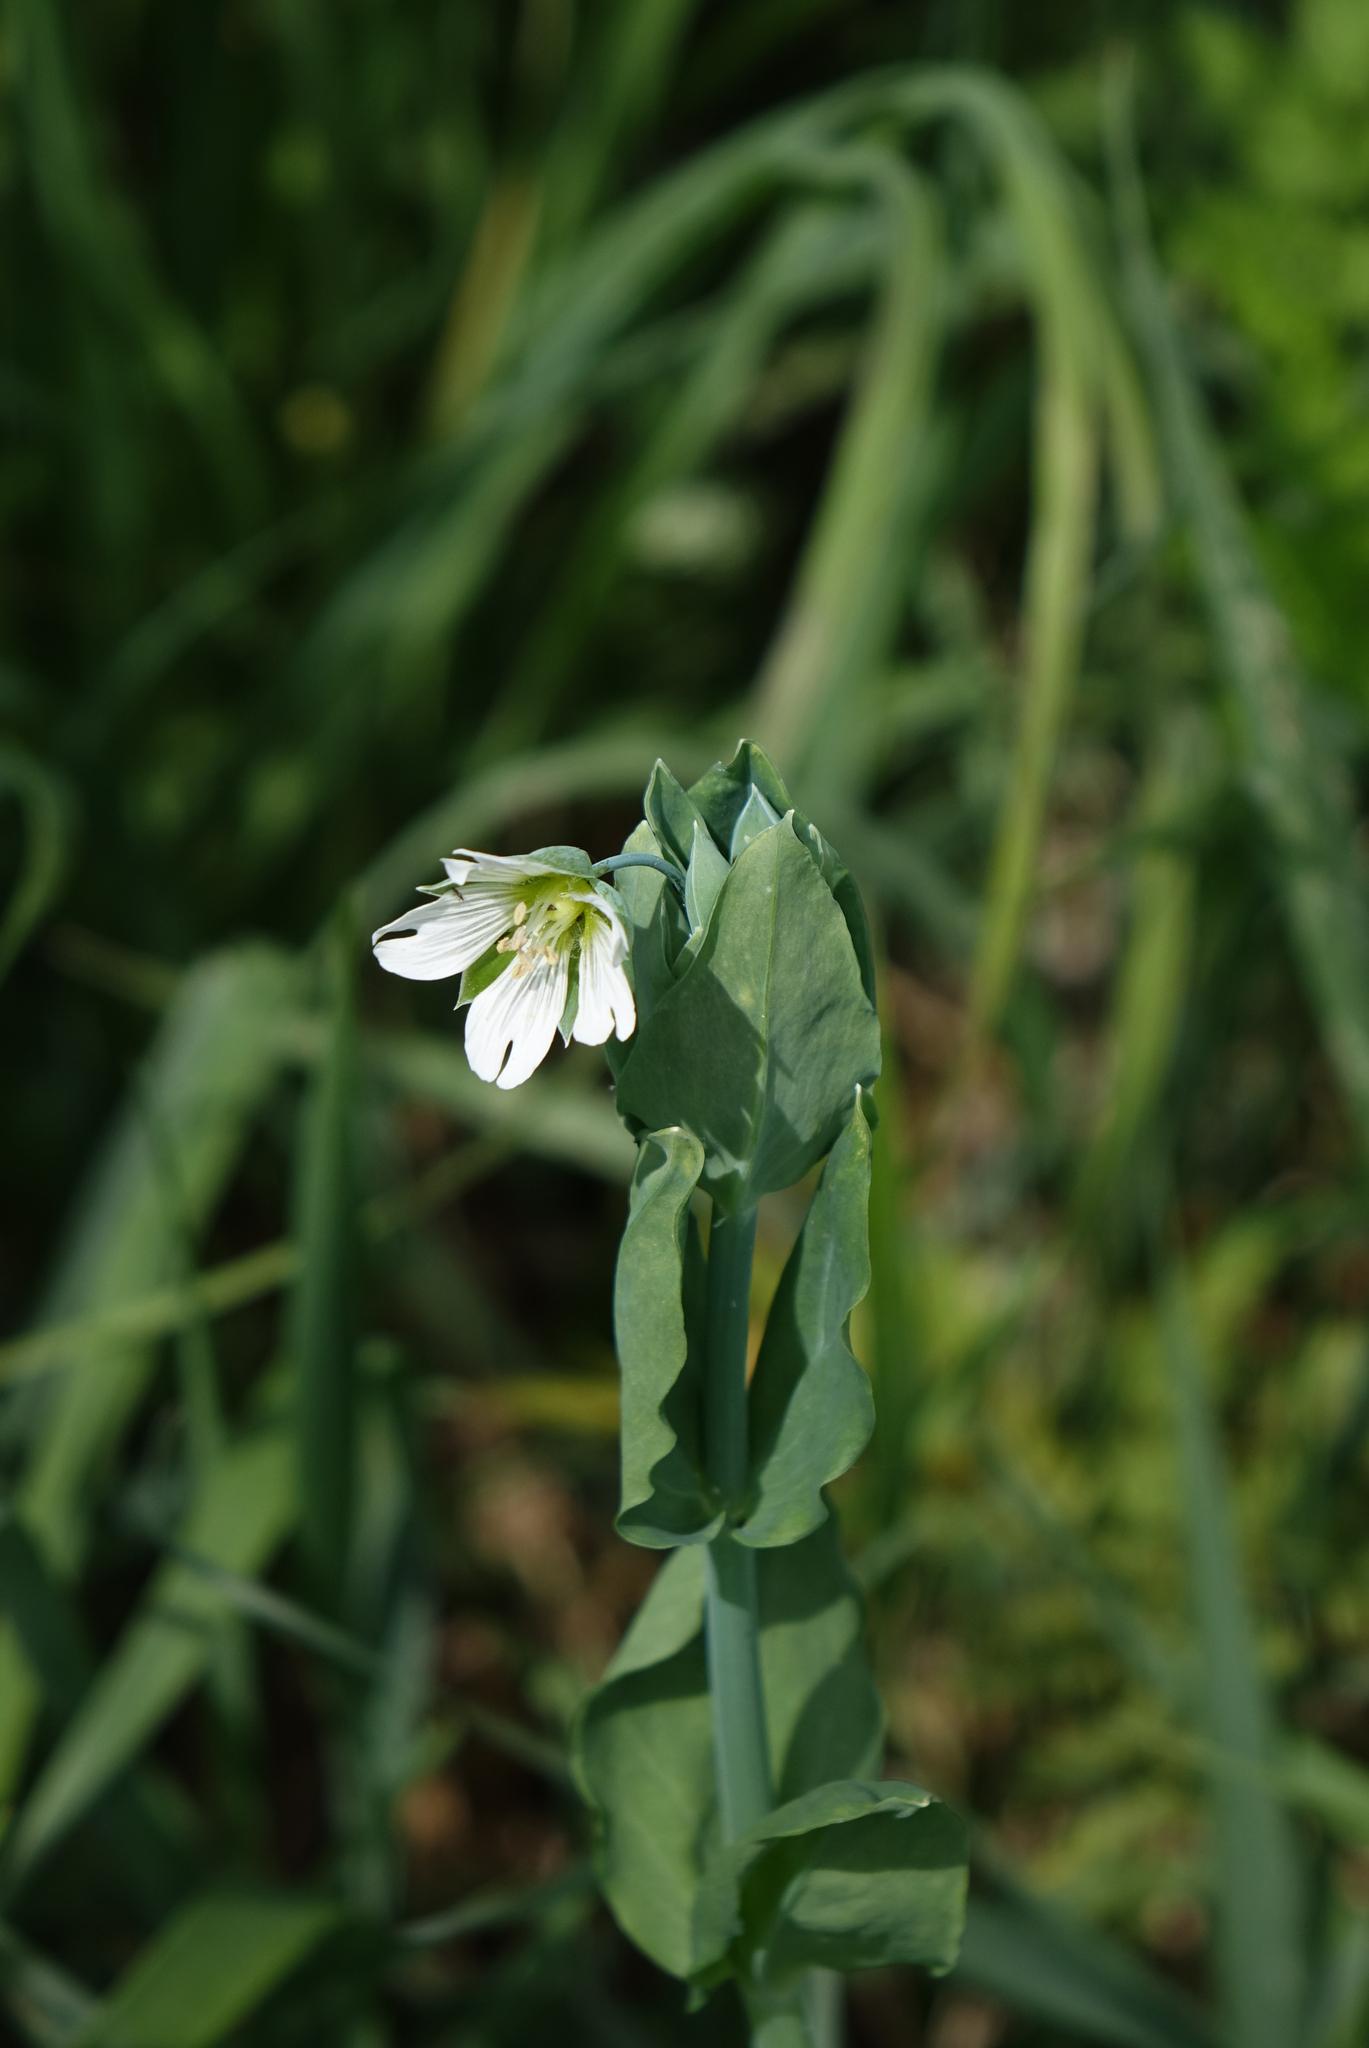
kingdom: Plantae
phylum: Tracheophyta
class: Magnoliopsida
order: Caryophyllales
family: Caryophyllaceae
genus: Cerastium
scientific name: Cerastium davuricum
